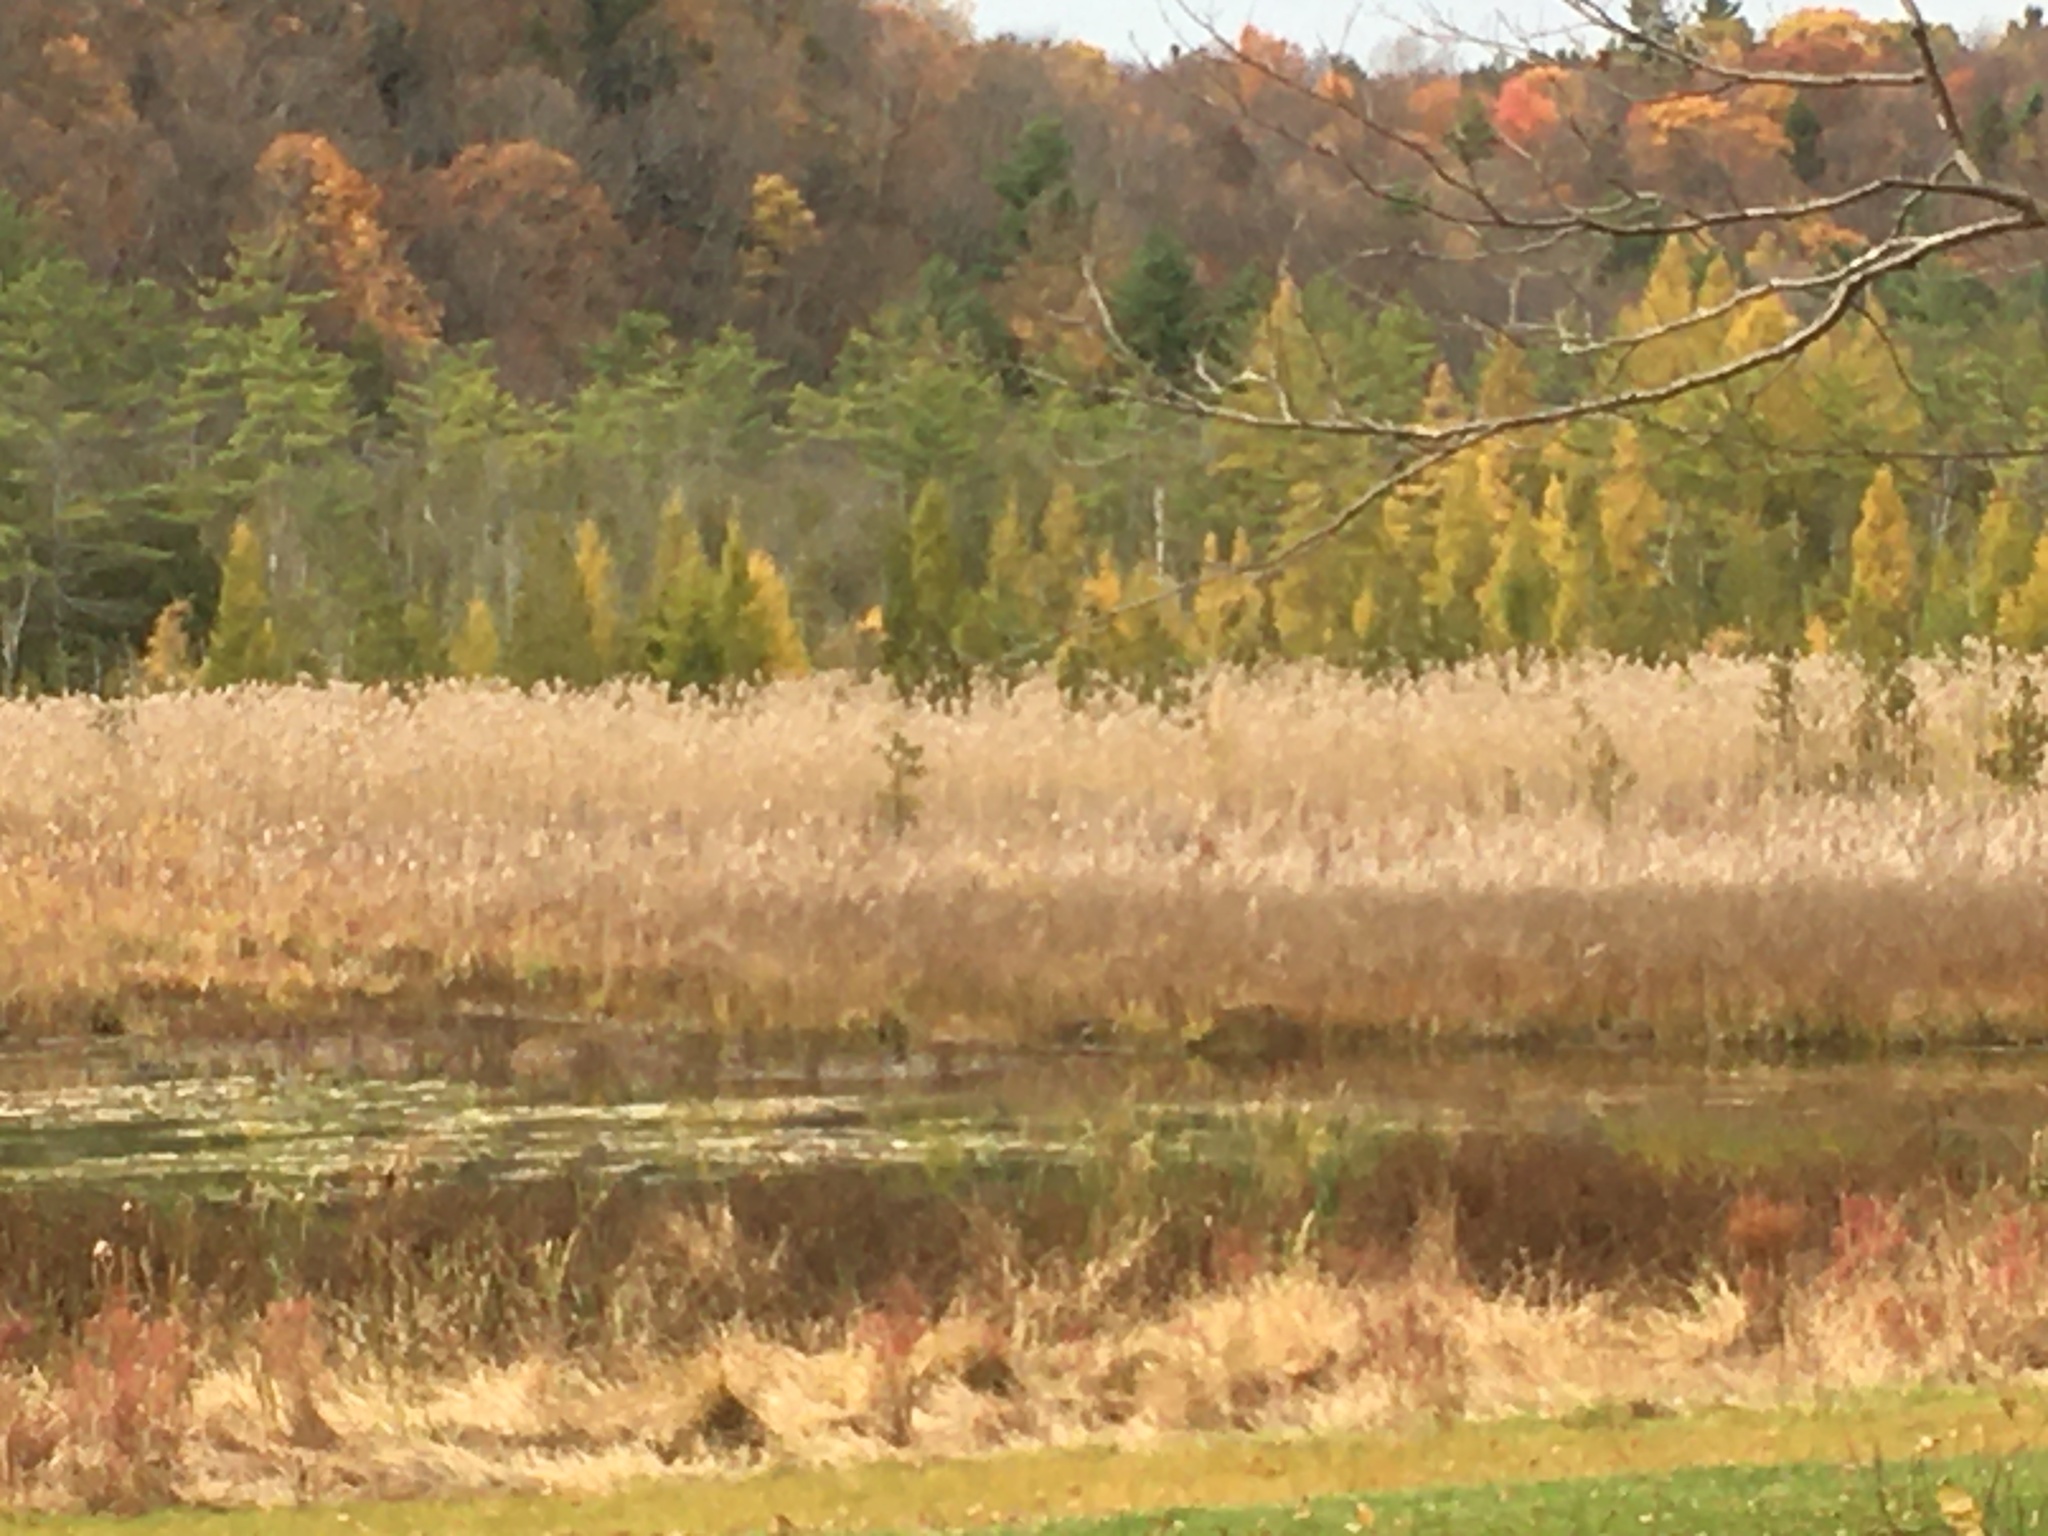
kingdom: Plantae
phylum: Tracheophyta
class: Liliopsida
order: Poales
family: Poaceae
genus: Phragmites
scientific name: Phragmites australis
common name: Common reed
